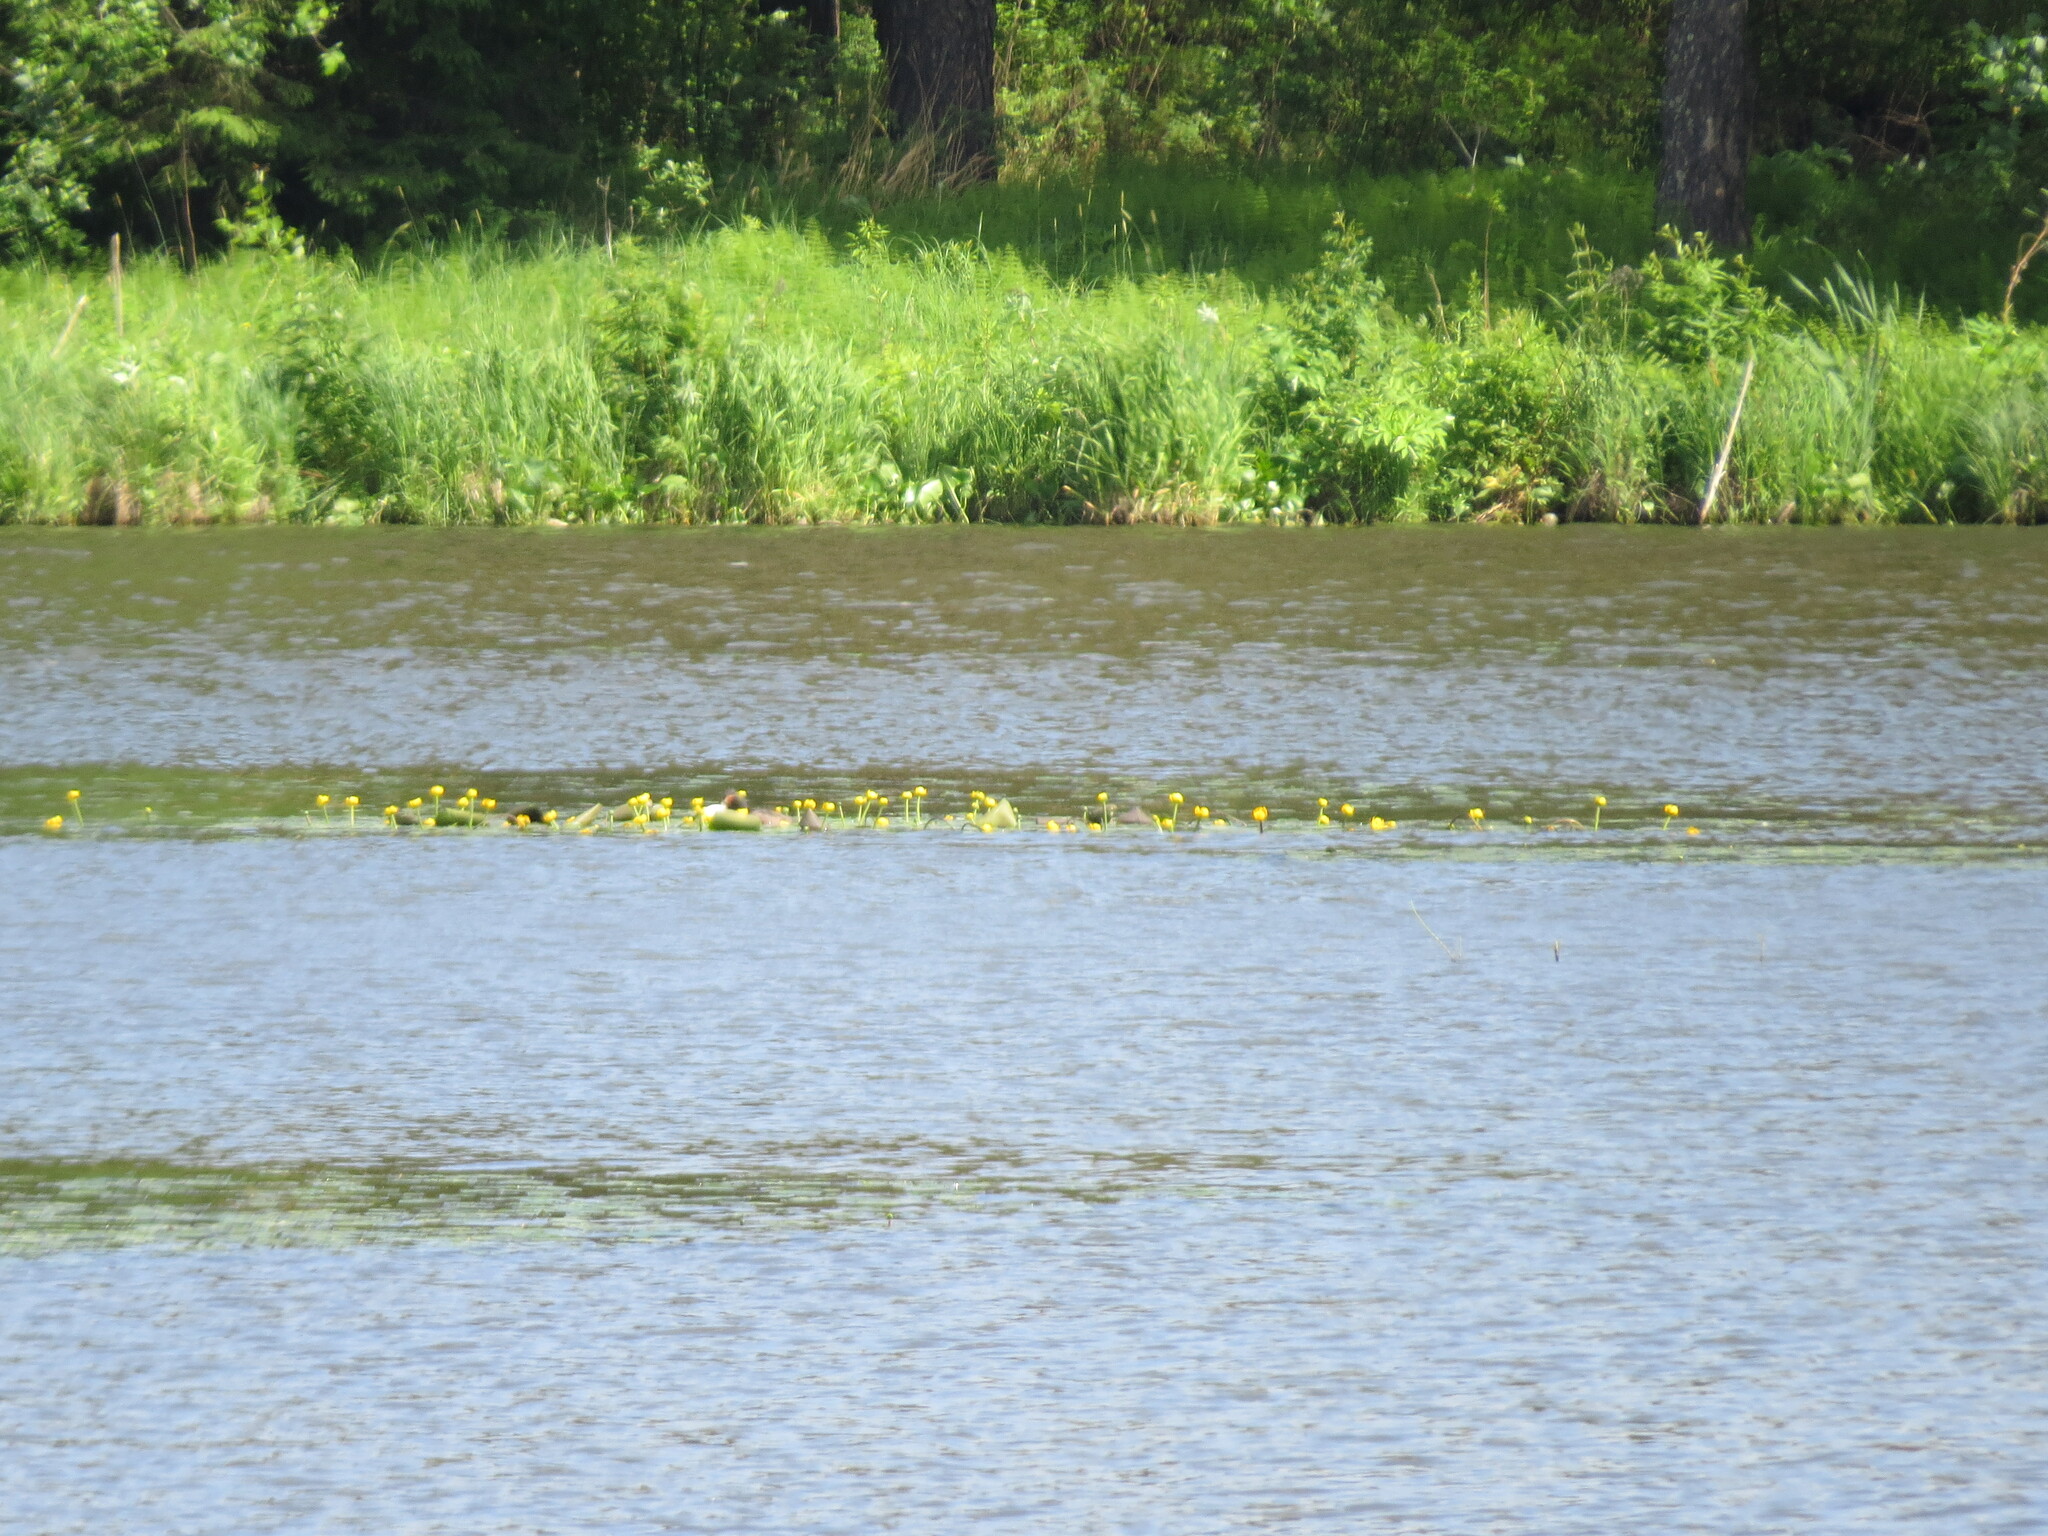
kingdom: Plantae
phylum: Tracheophyta
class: Magnoliopsida
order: Nymphaeales
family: Nymphaeaceae
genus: Nuphar
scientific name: Nuphar lutea
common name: Yellow water-lily
